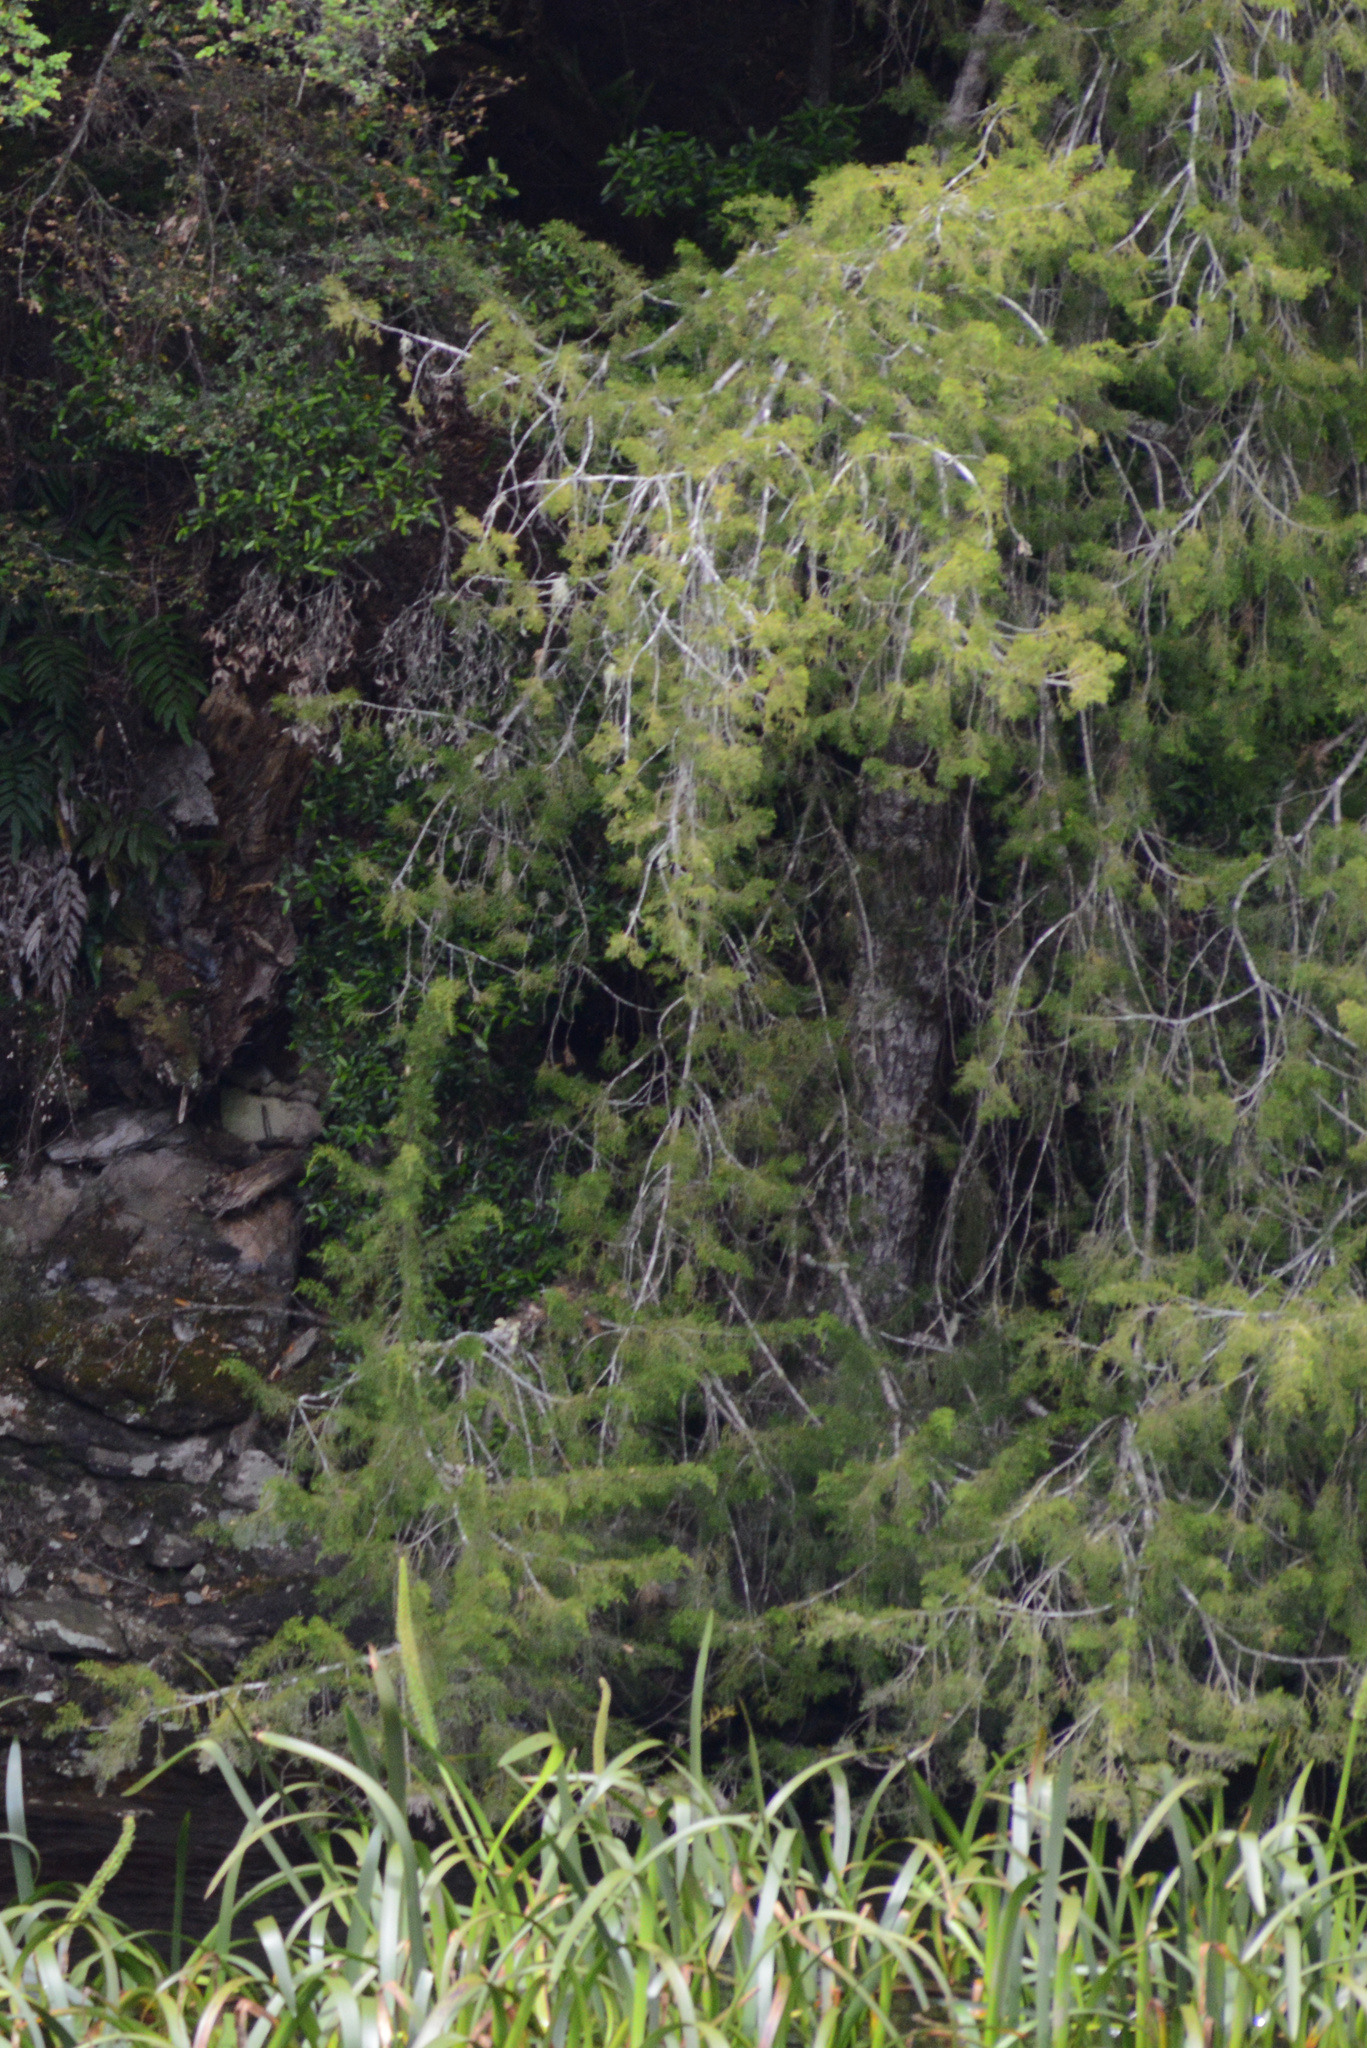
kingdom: Plantae
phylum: Tracheophyta
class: Pinopsida
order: Pinales
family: Podocarpaceae
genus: Lagarostrobos
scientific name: Lagarostrobos franklinii
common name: Huon pine
